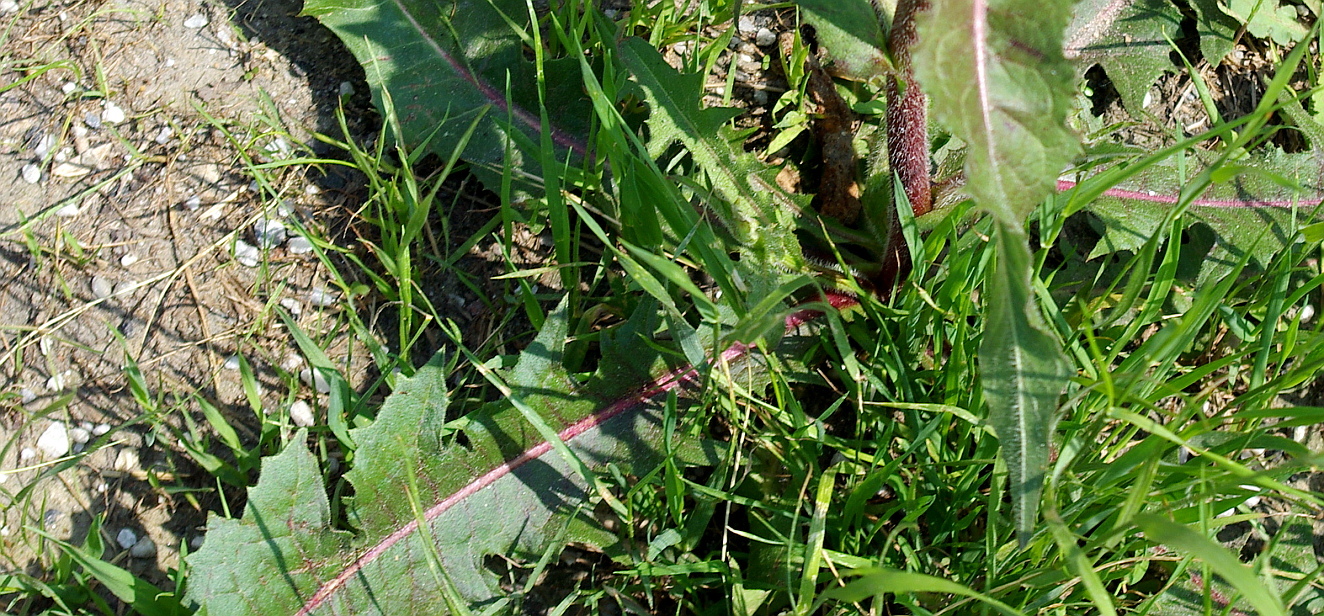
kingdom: Plantae
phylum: Tracheophyta
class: Magnoliopsida
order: Asterales
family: Asteraceae
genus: Cichorium
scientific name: Cichorium intybus
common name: Chicory
